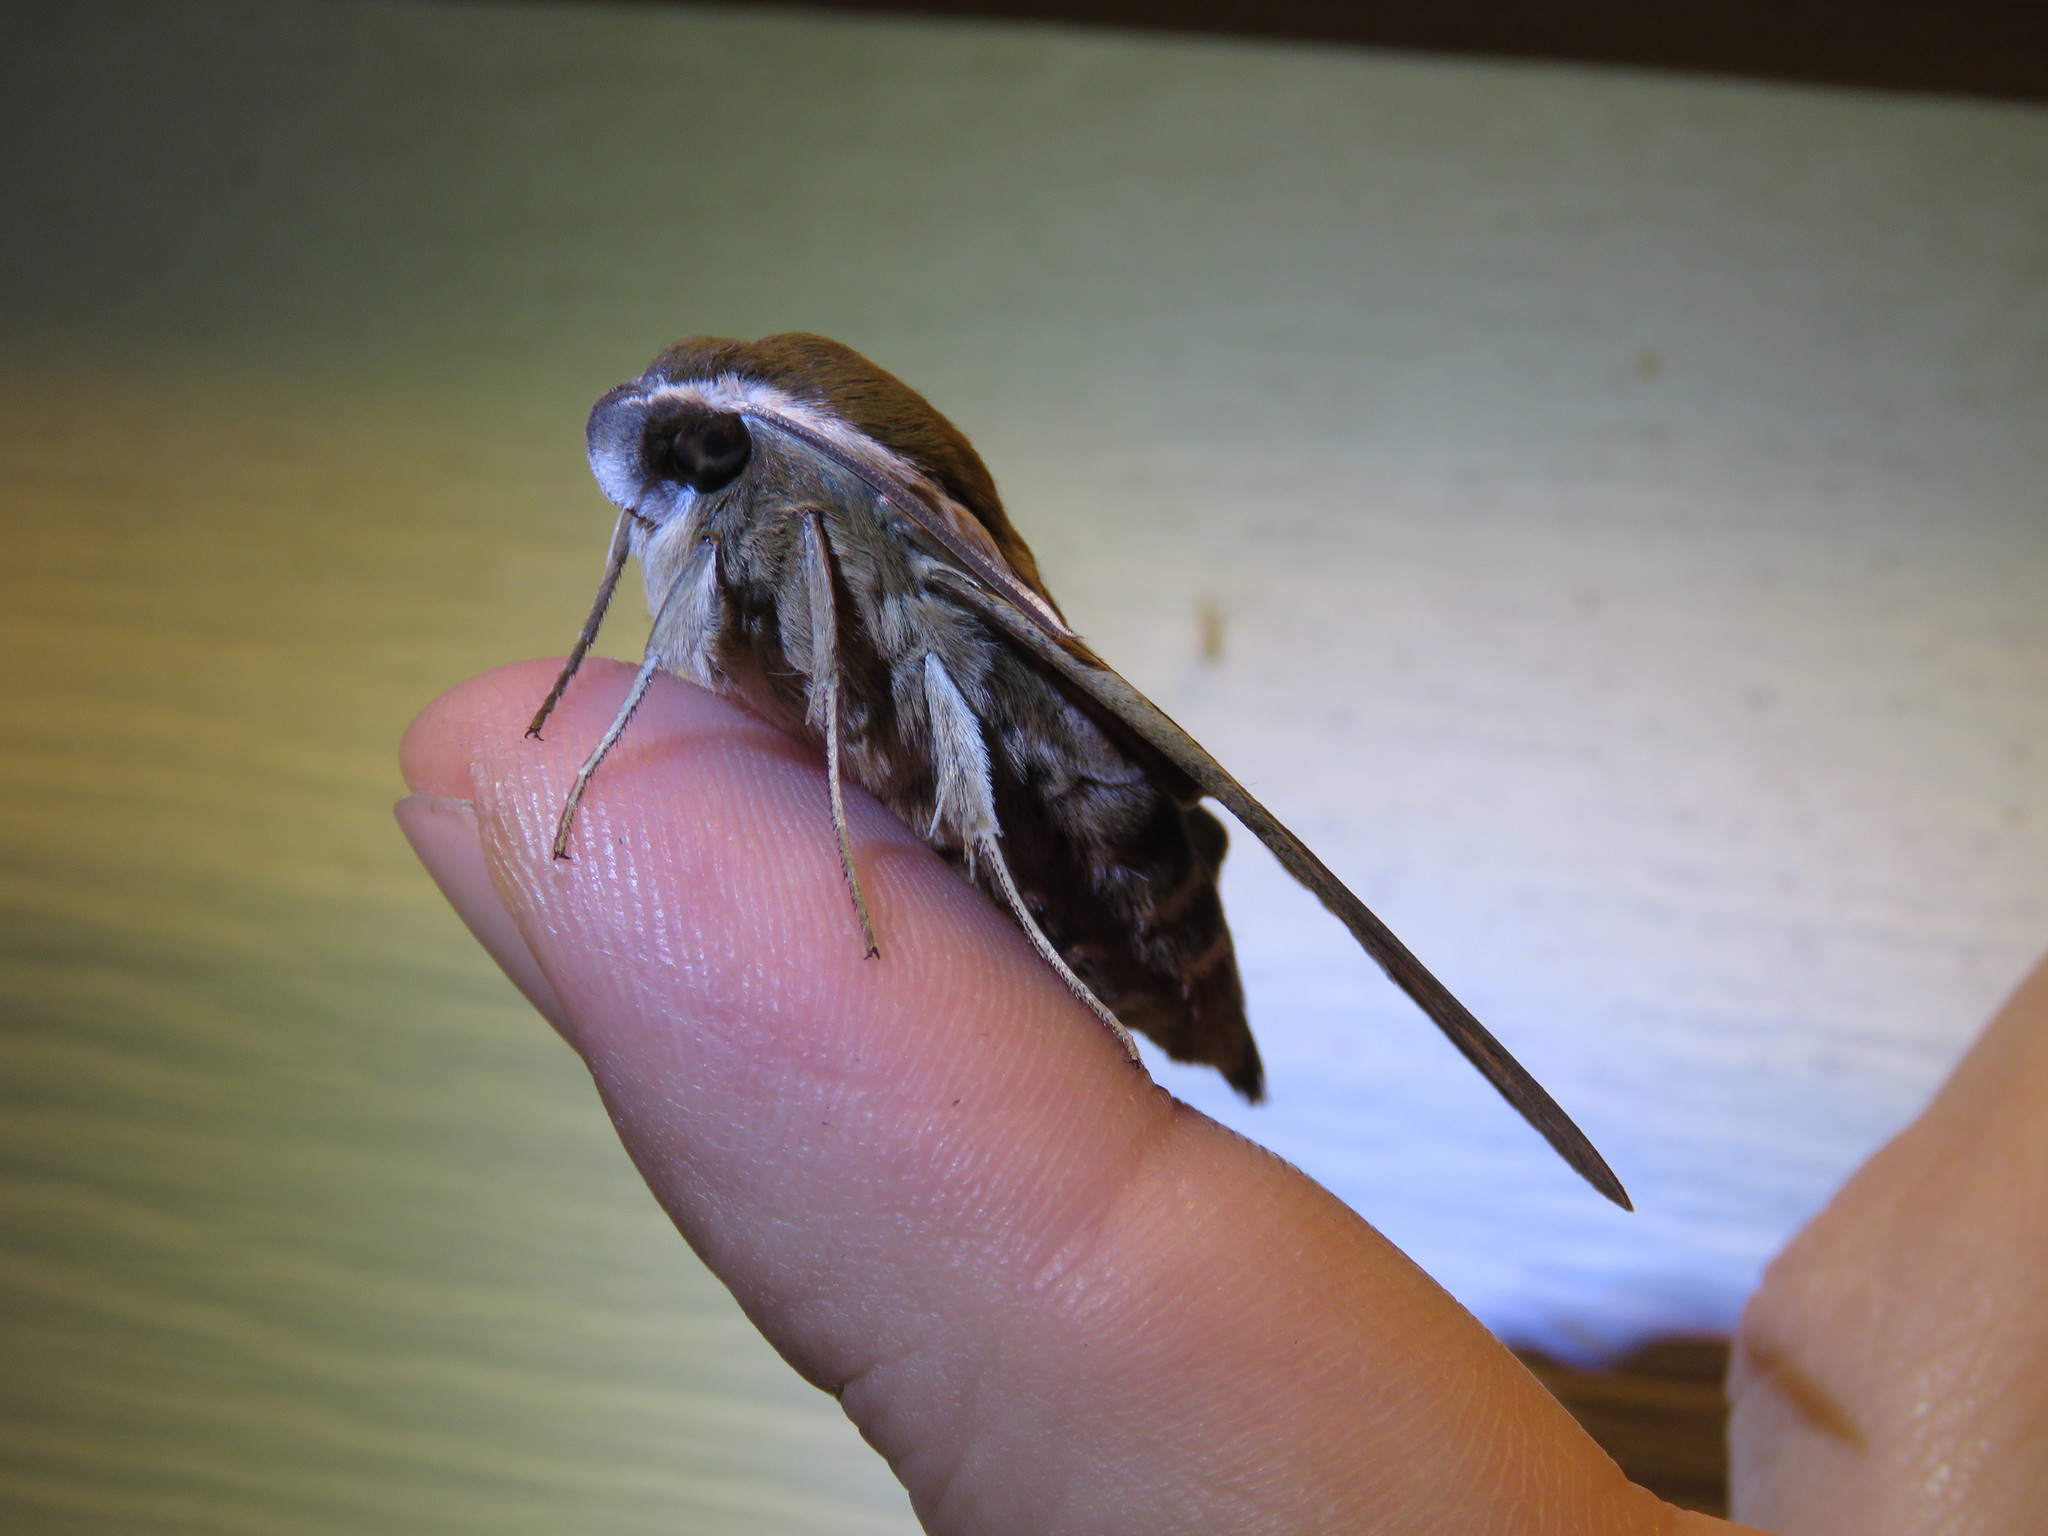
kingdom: Animalia
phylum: Arthropoda
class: Insecta
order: Lepidoptera
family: Sphingidae
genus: Hyles
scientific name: Hyles gallii
